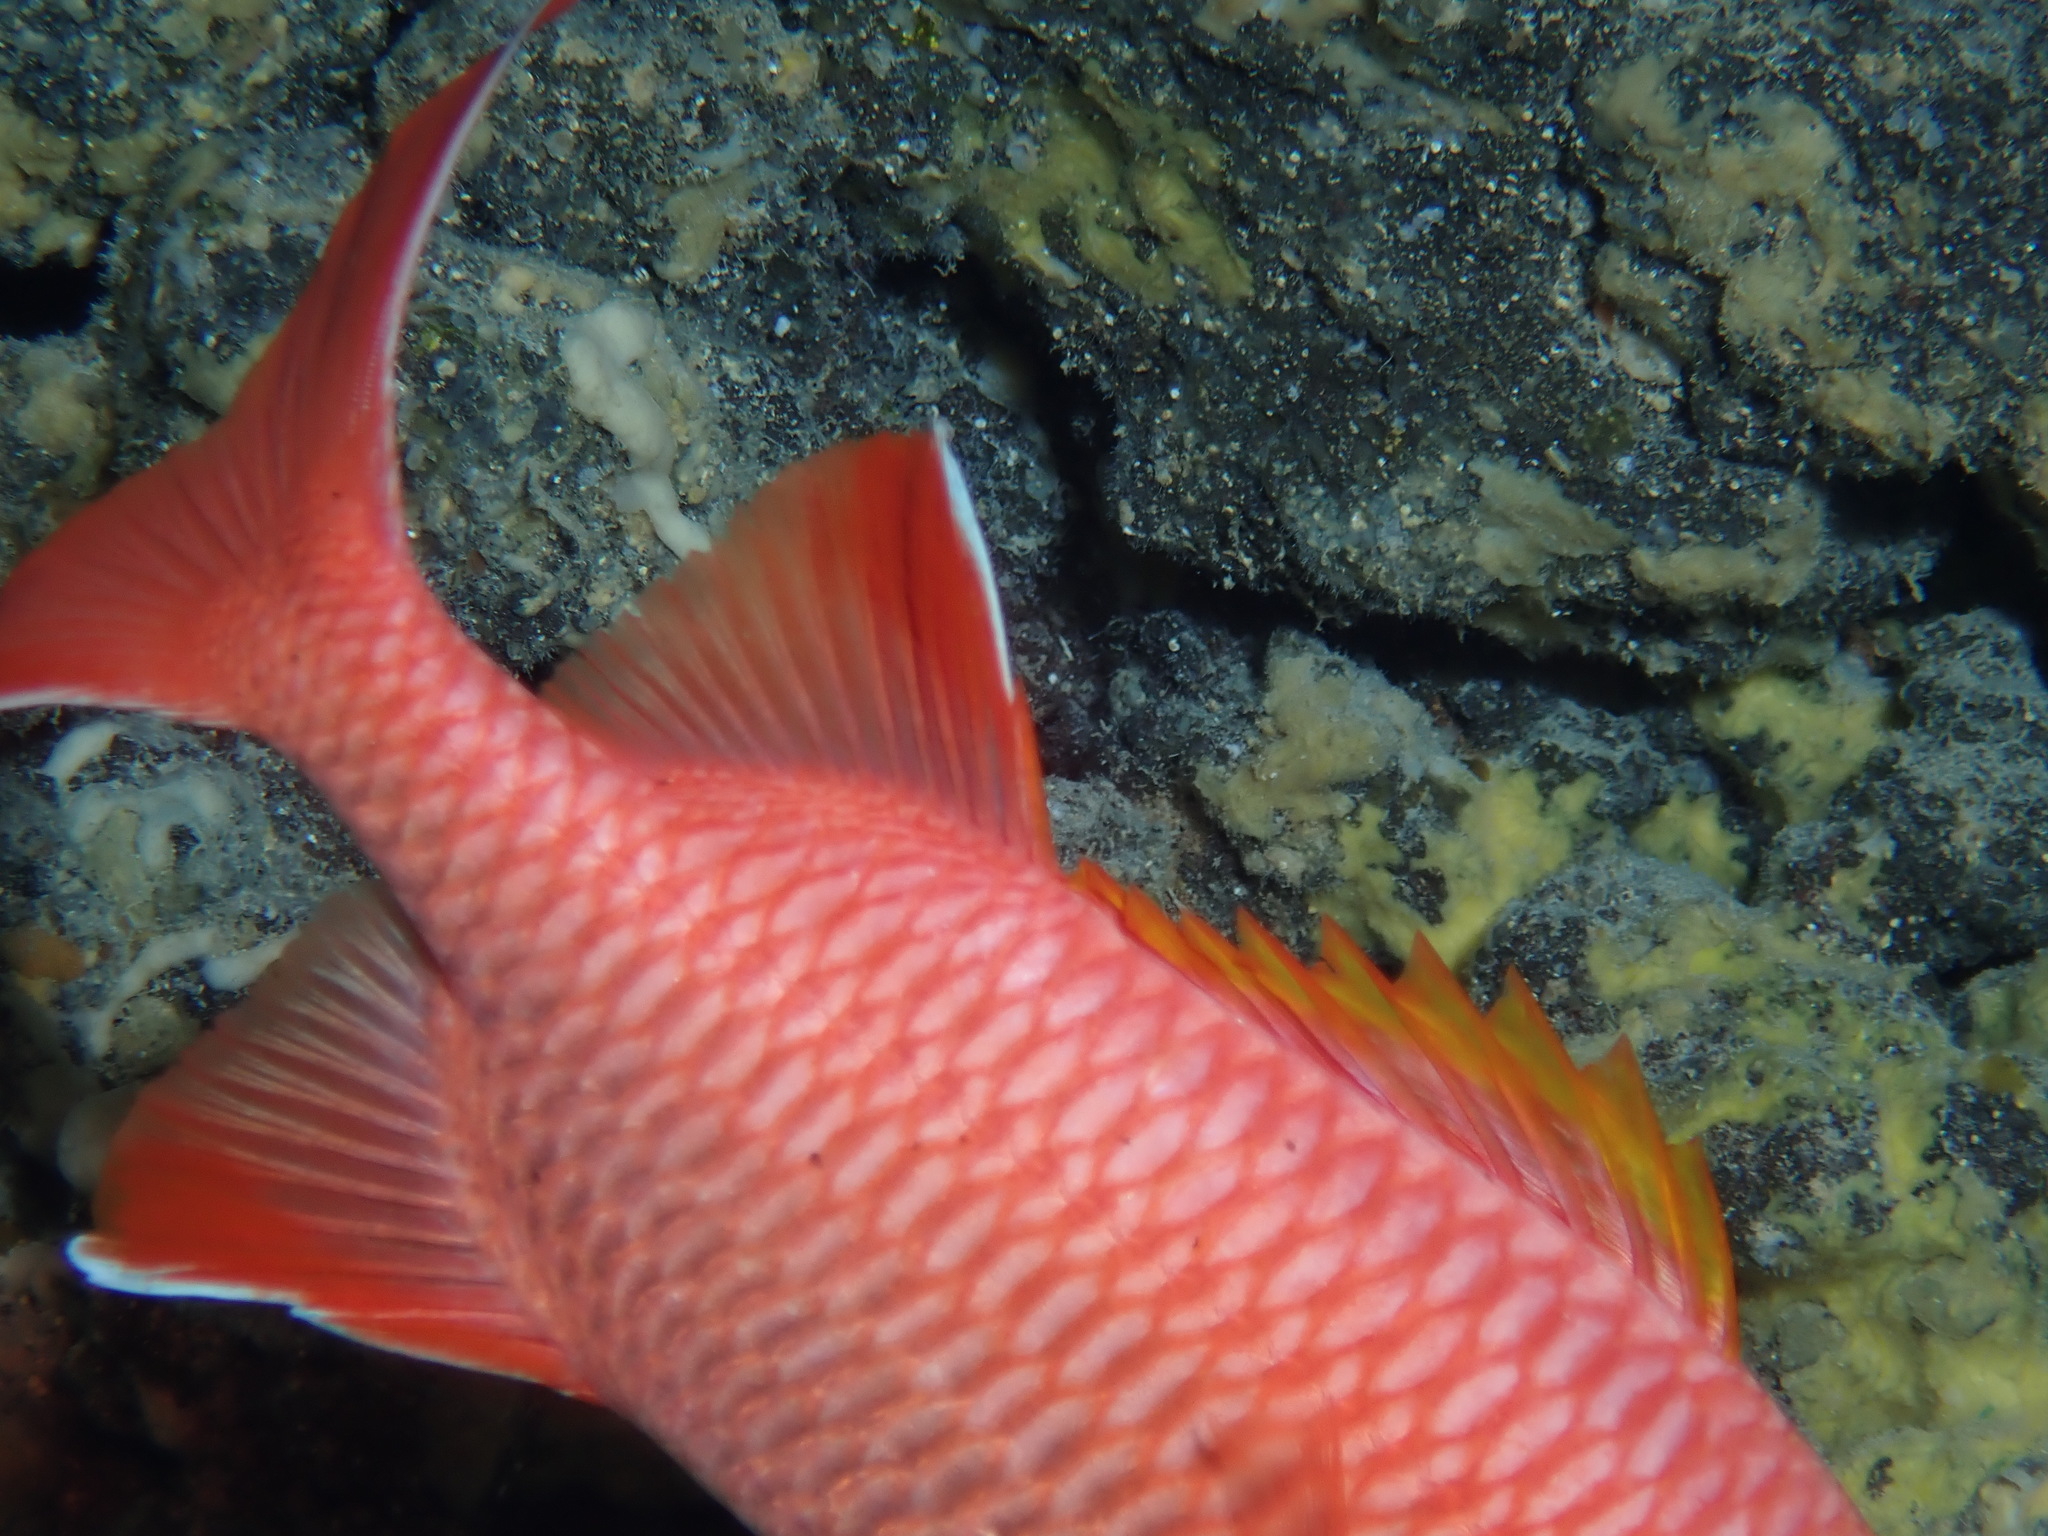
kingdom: Animalia
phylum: Chordata
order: Beryciformes
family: Holocentridae
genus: Myripristis
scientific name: Myripristis berndti
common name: Bigscale soldierfish
